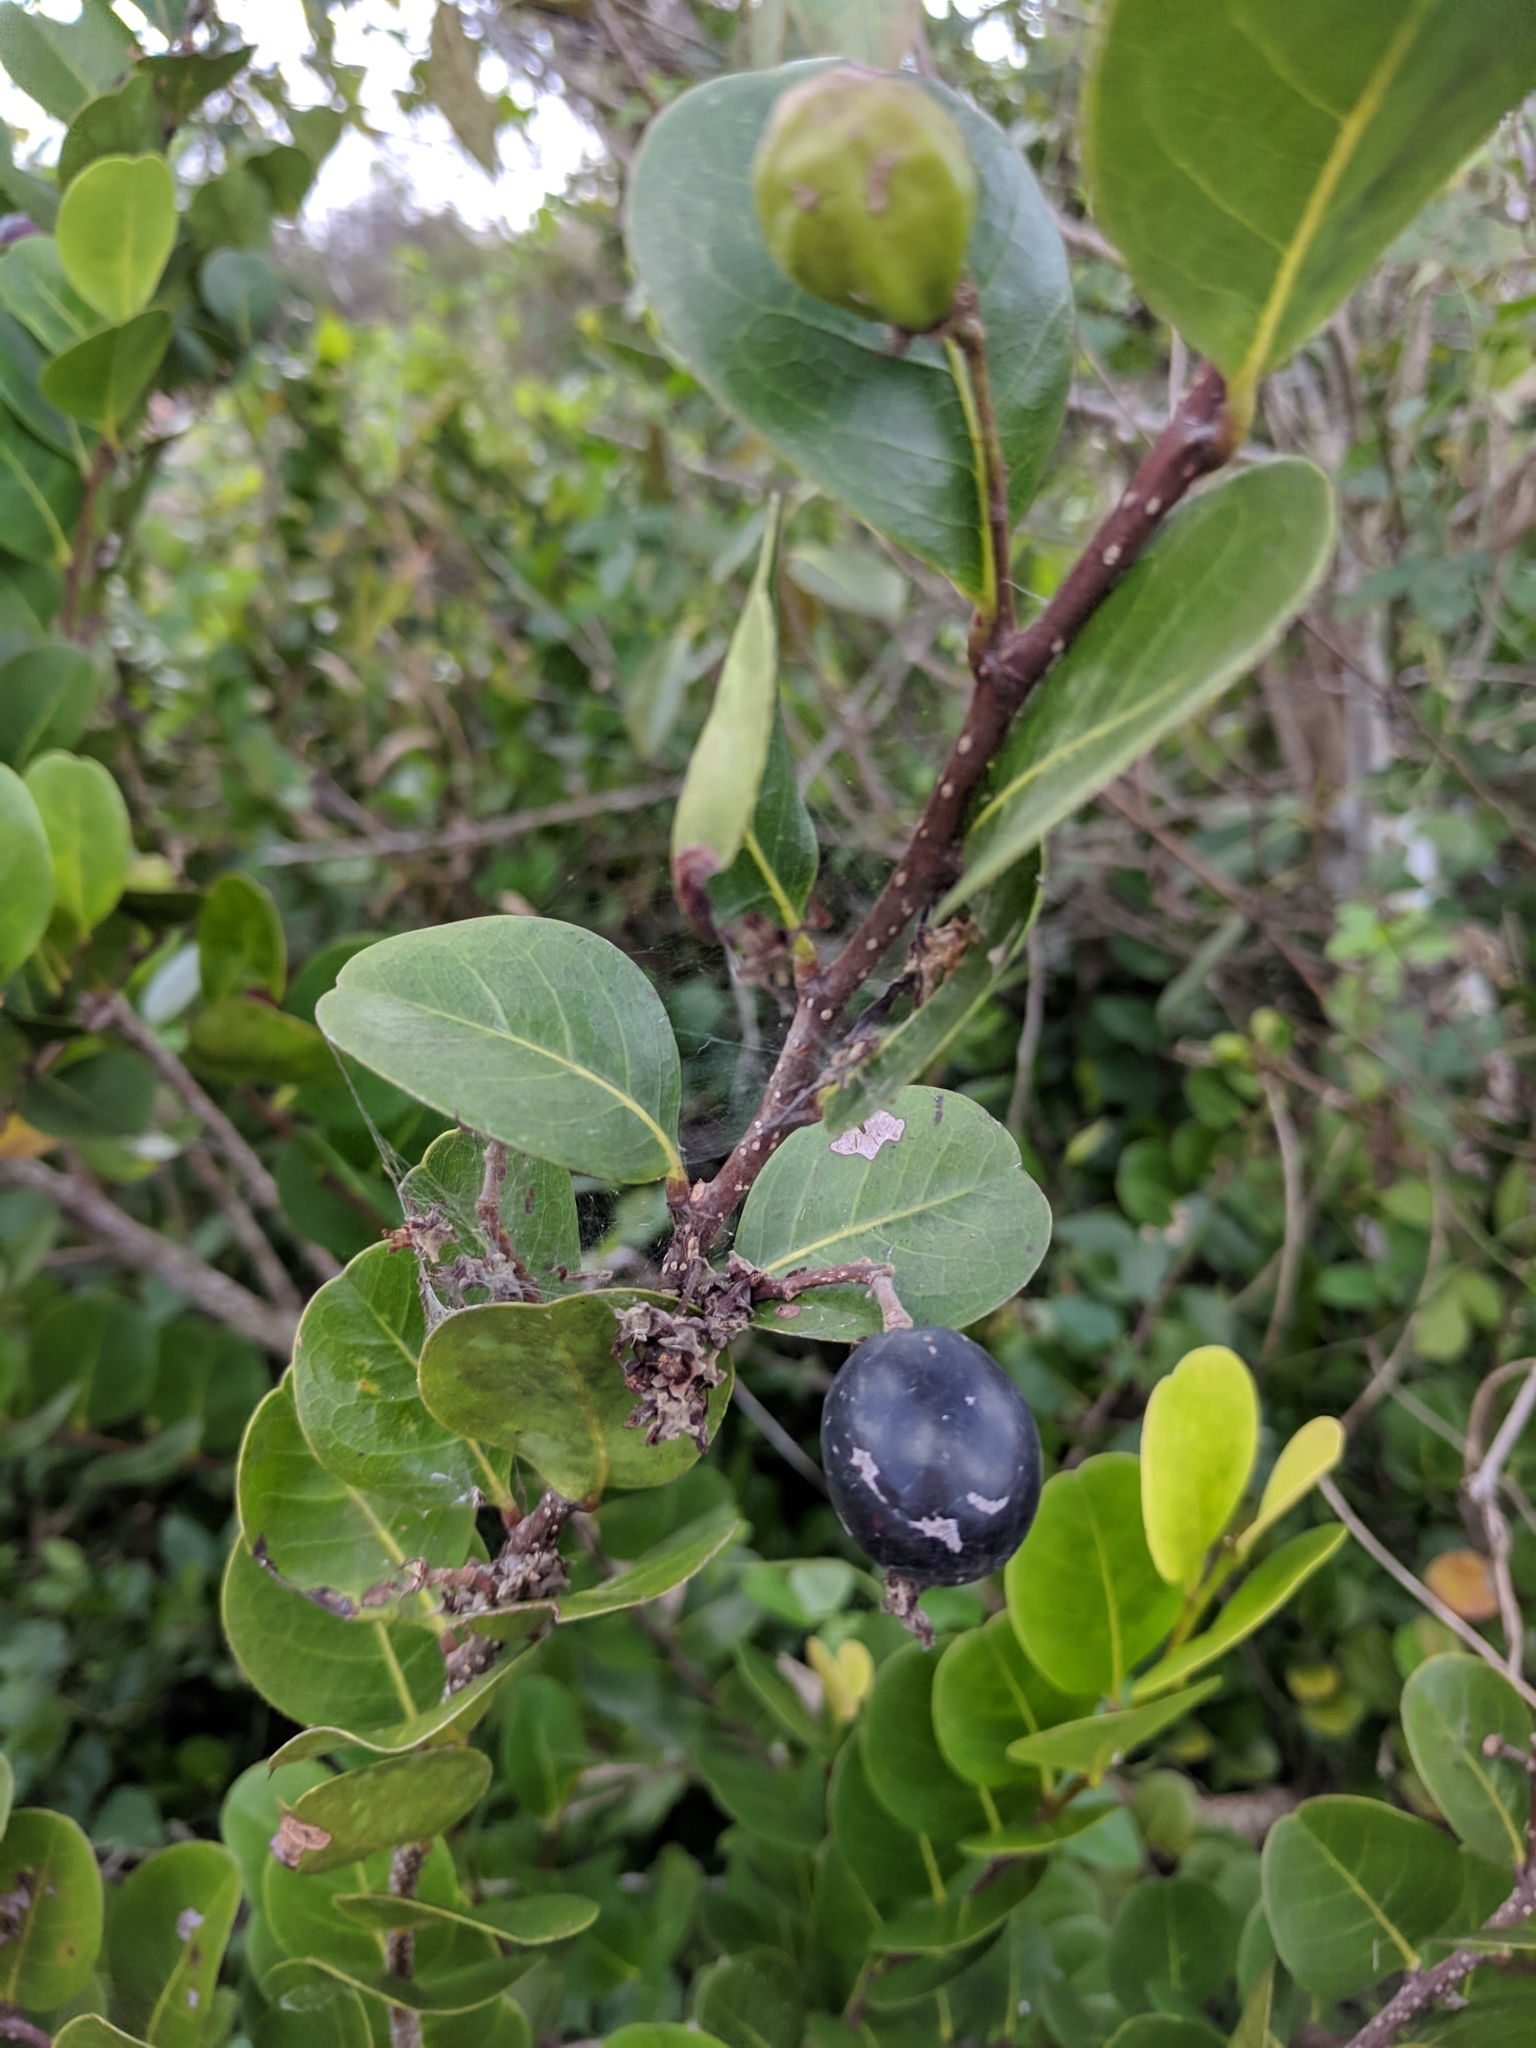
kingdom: Plantae
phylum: Tracheophyta
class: Magnoliopsida
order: Malpighiales
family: Chrysobalanaceae
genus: Chrysobalanus
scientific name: Chrysobalanus icaco
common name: Coco plum
